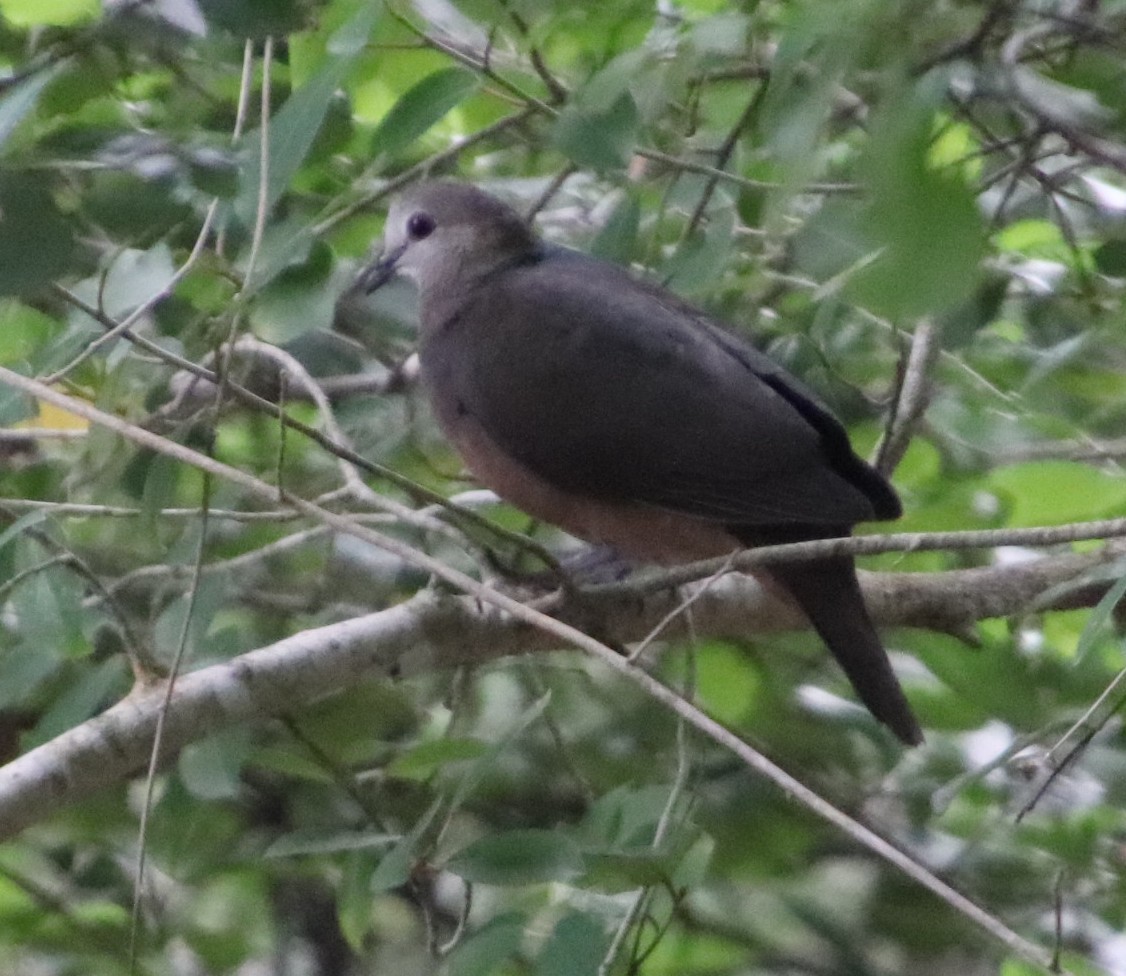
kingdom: Animalia
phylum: Chordata
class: Aves
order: Columbiformes
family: Columbidae
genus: Columba
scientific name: Columba larvata
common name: Lemon dove
